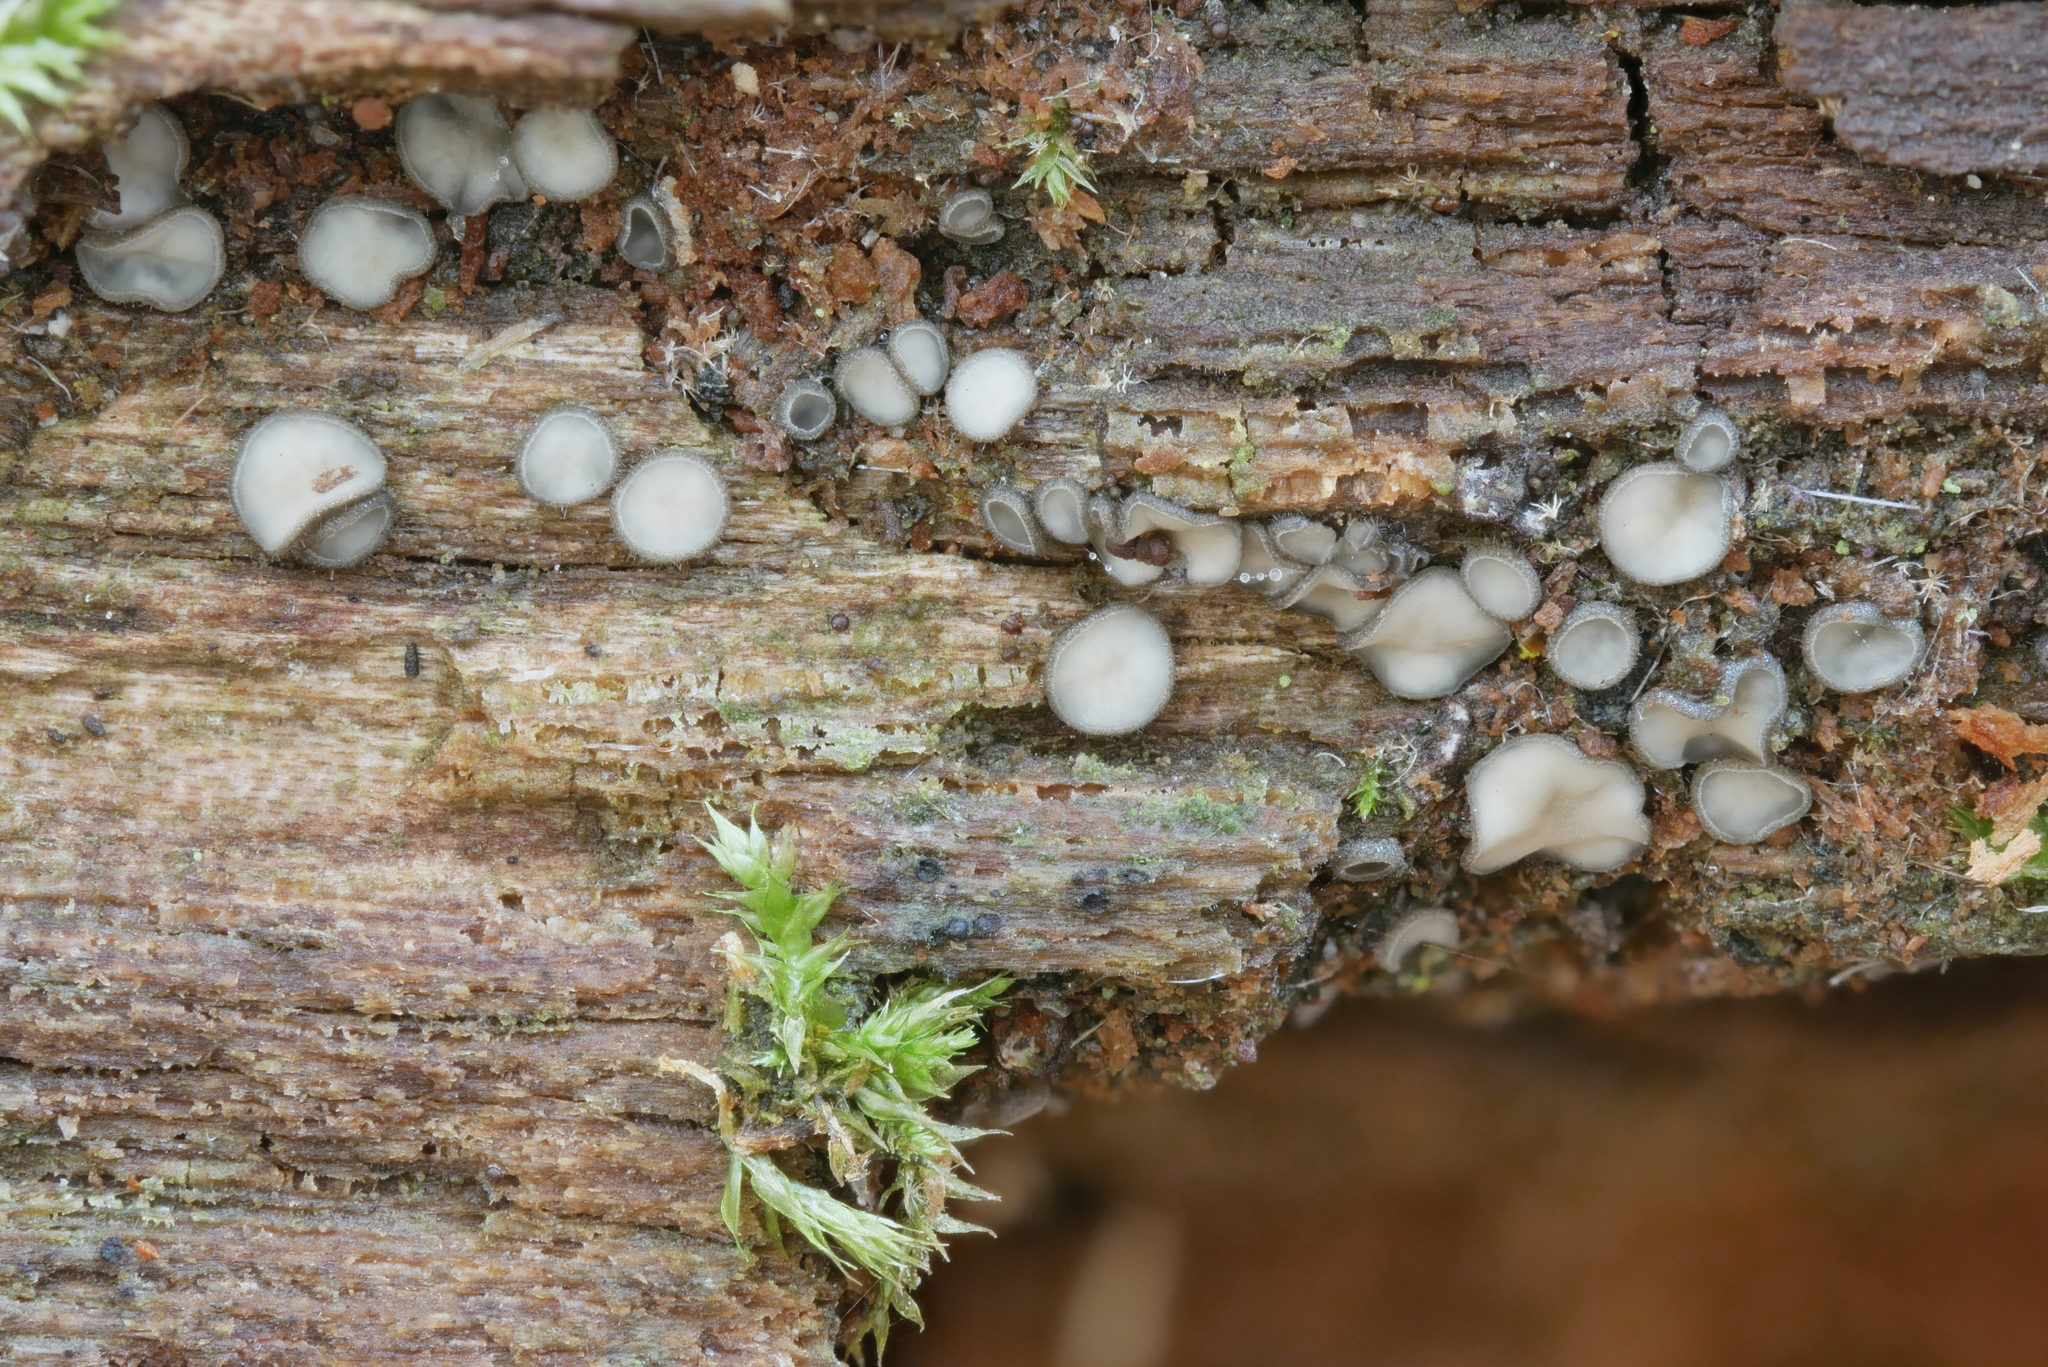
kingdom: Fungi
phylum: Ascomycota
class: Leotiomycetes
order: Helotiales
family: Mollisiaceae
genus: Tapesia
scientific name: Tapesia fusca
